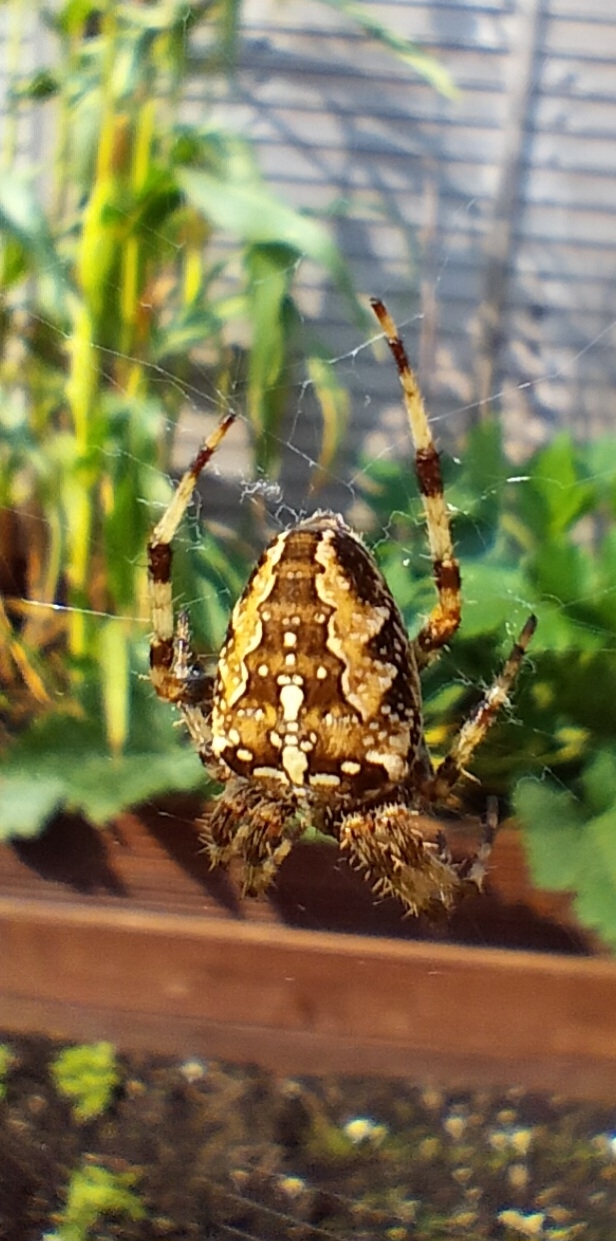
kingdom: Animalia
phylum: Arthropoda
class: Arachnida
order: Araneae
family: Araneidae
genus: Araneus
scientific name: Araneus diadematus
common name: Cross orbweaver
